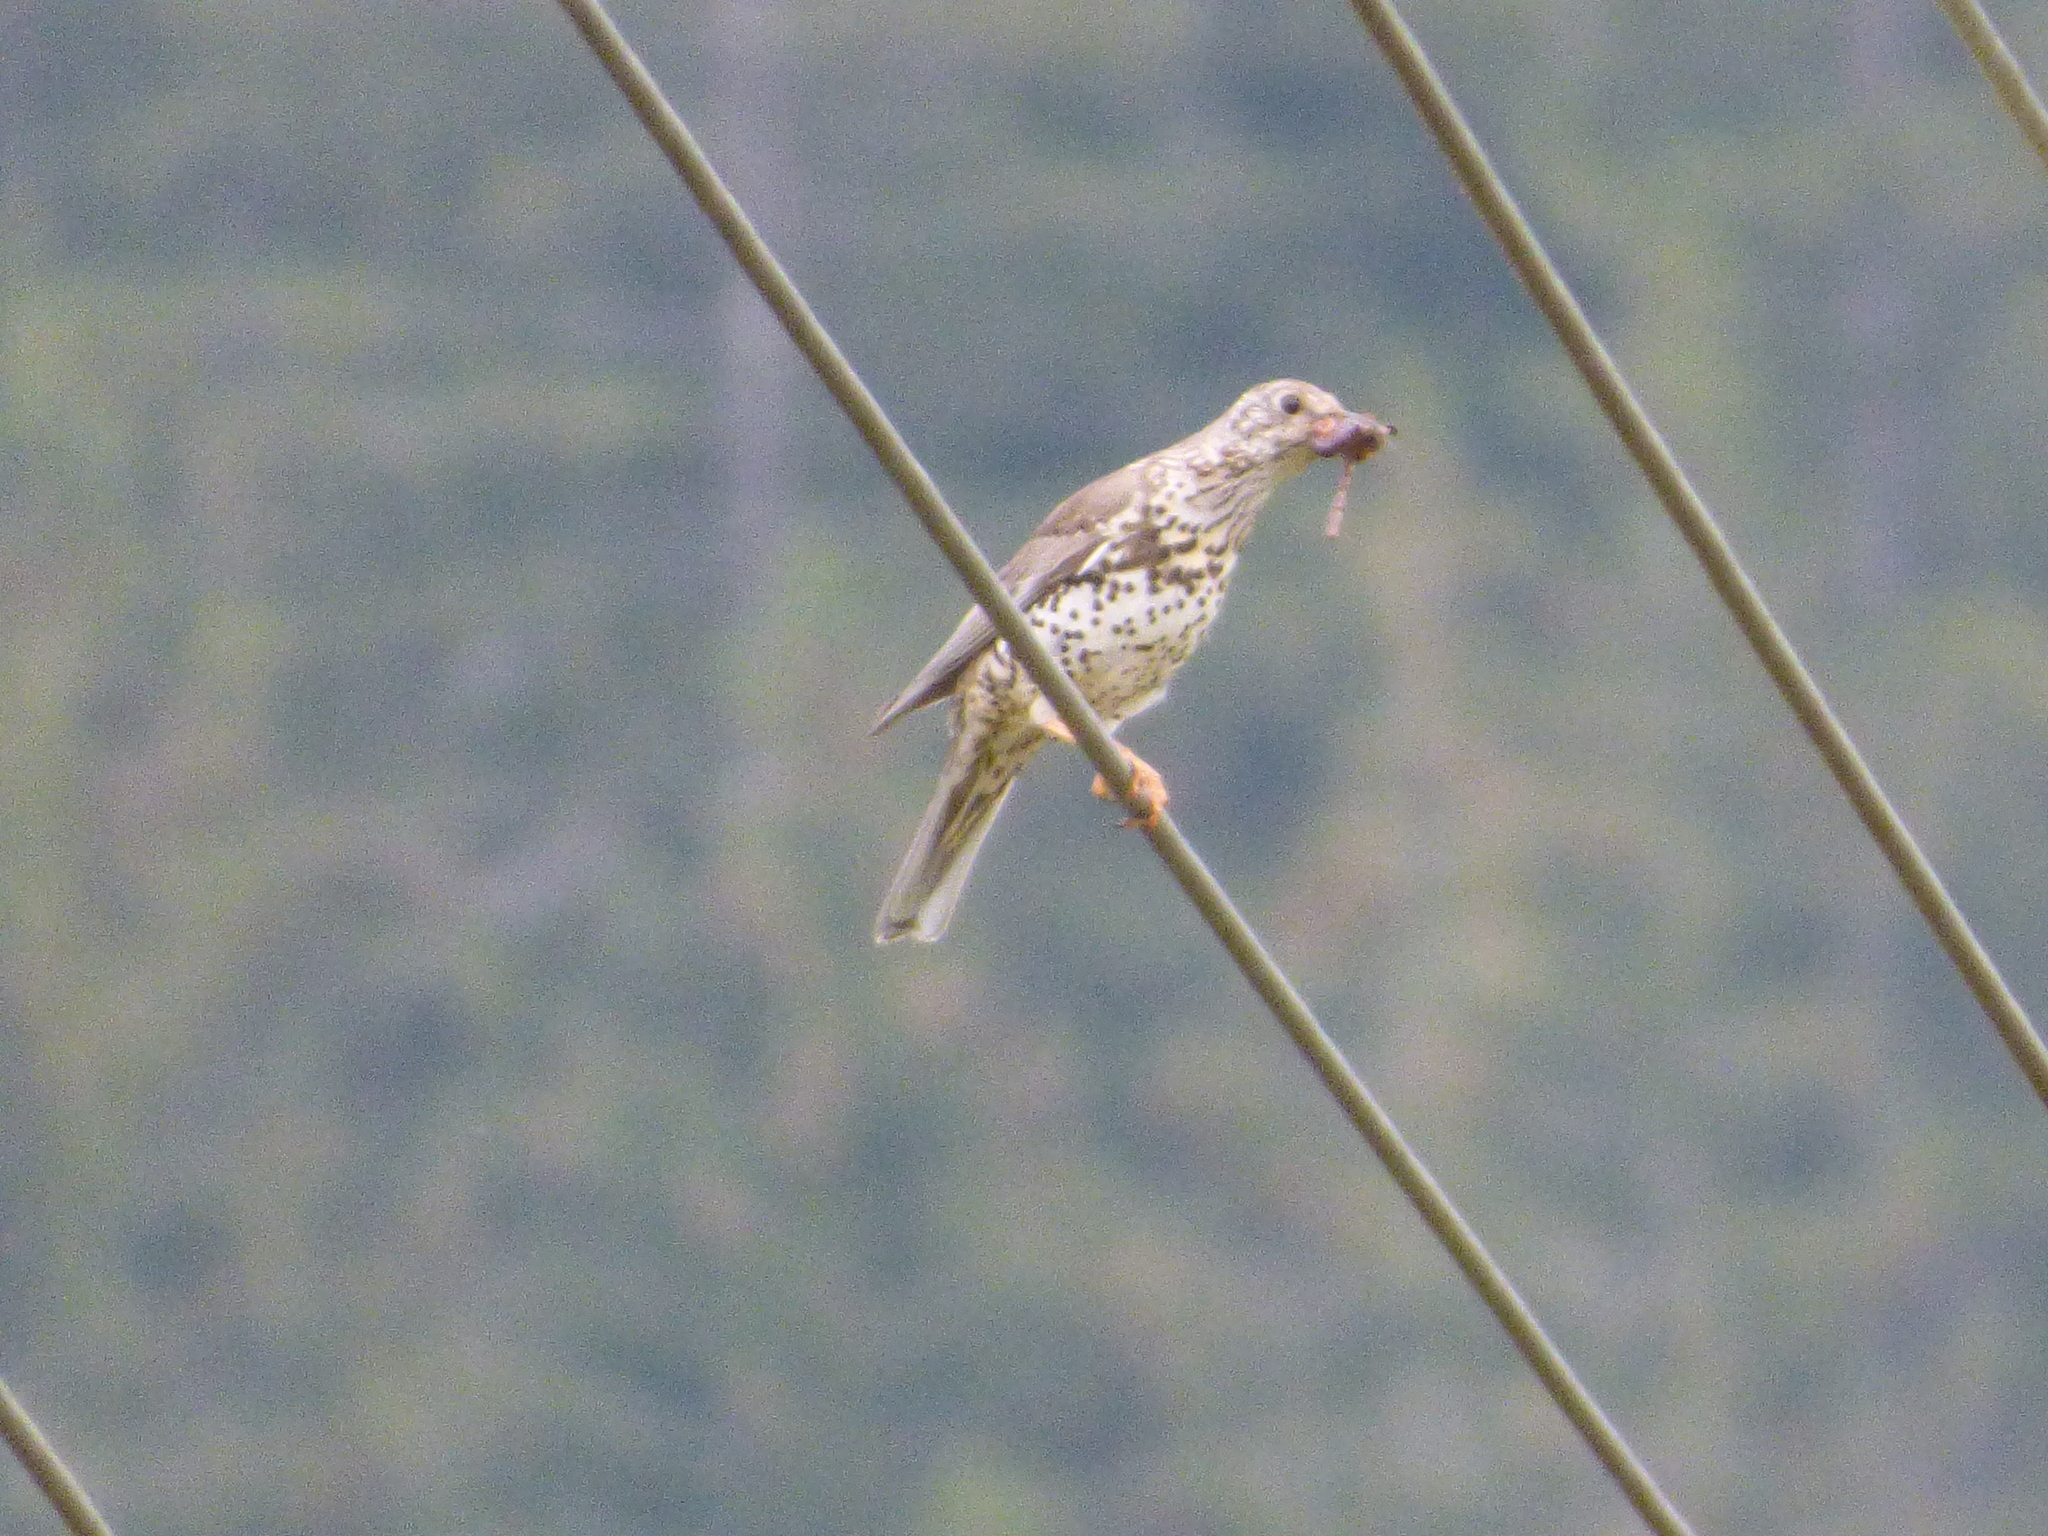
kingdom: Animalia
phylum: Chordata
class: Aves
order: Passeriformes
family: Turdidae
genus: Turdus
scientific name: Turdus viscivorus
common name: Mistle thrush
